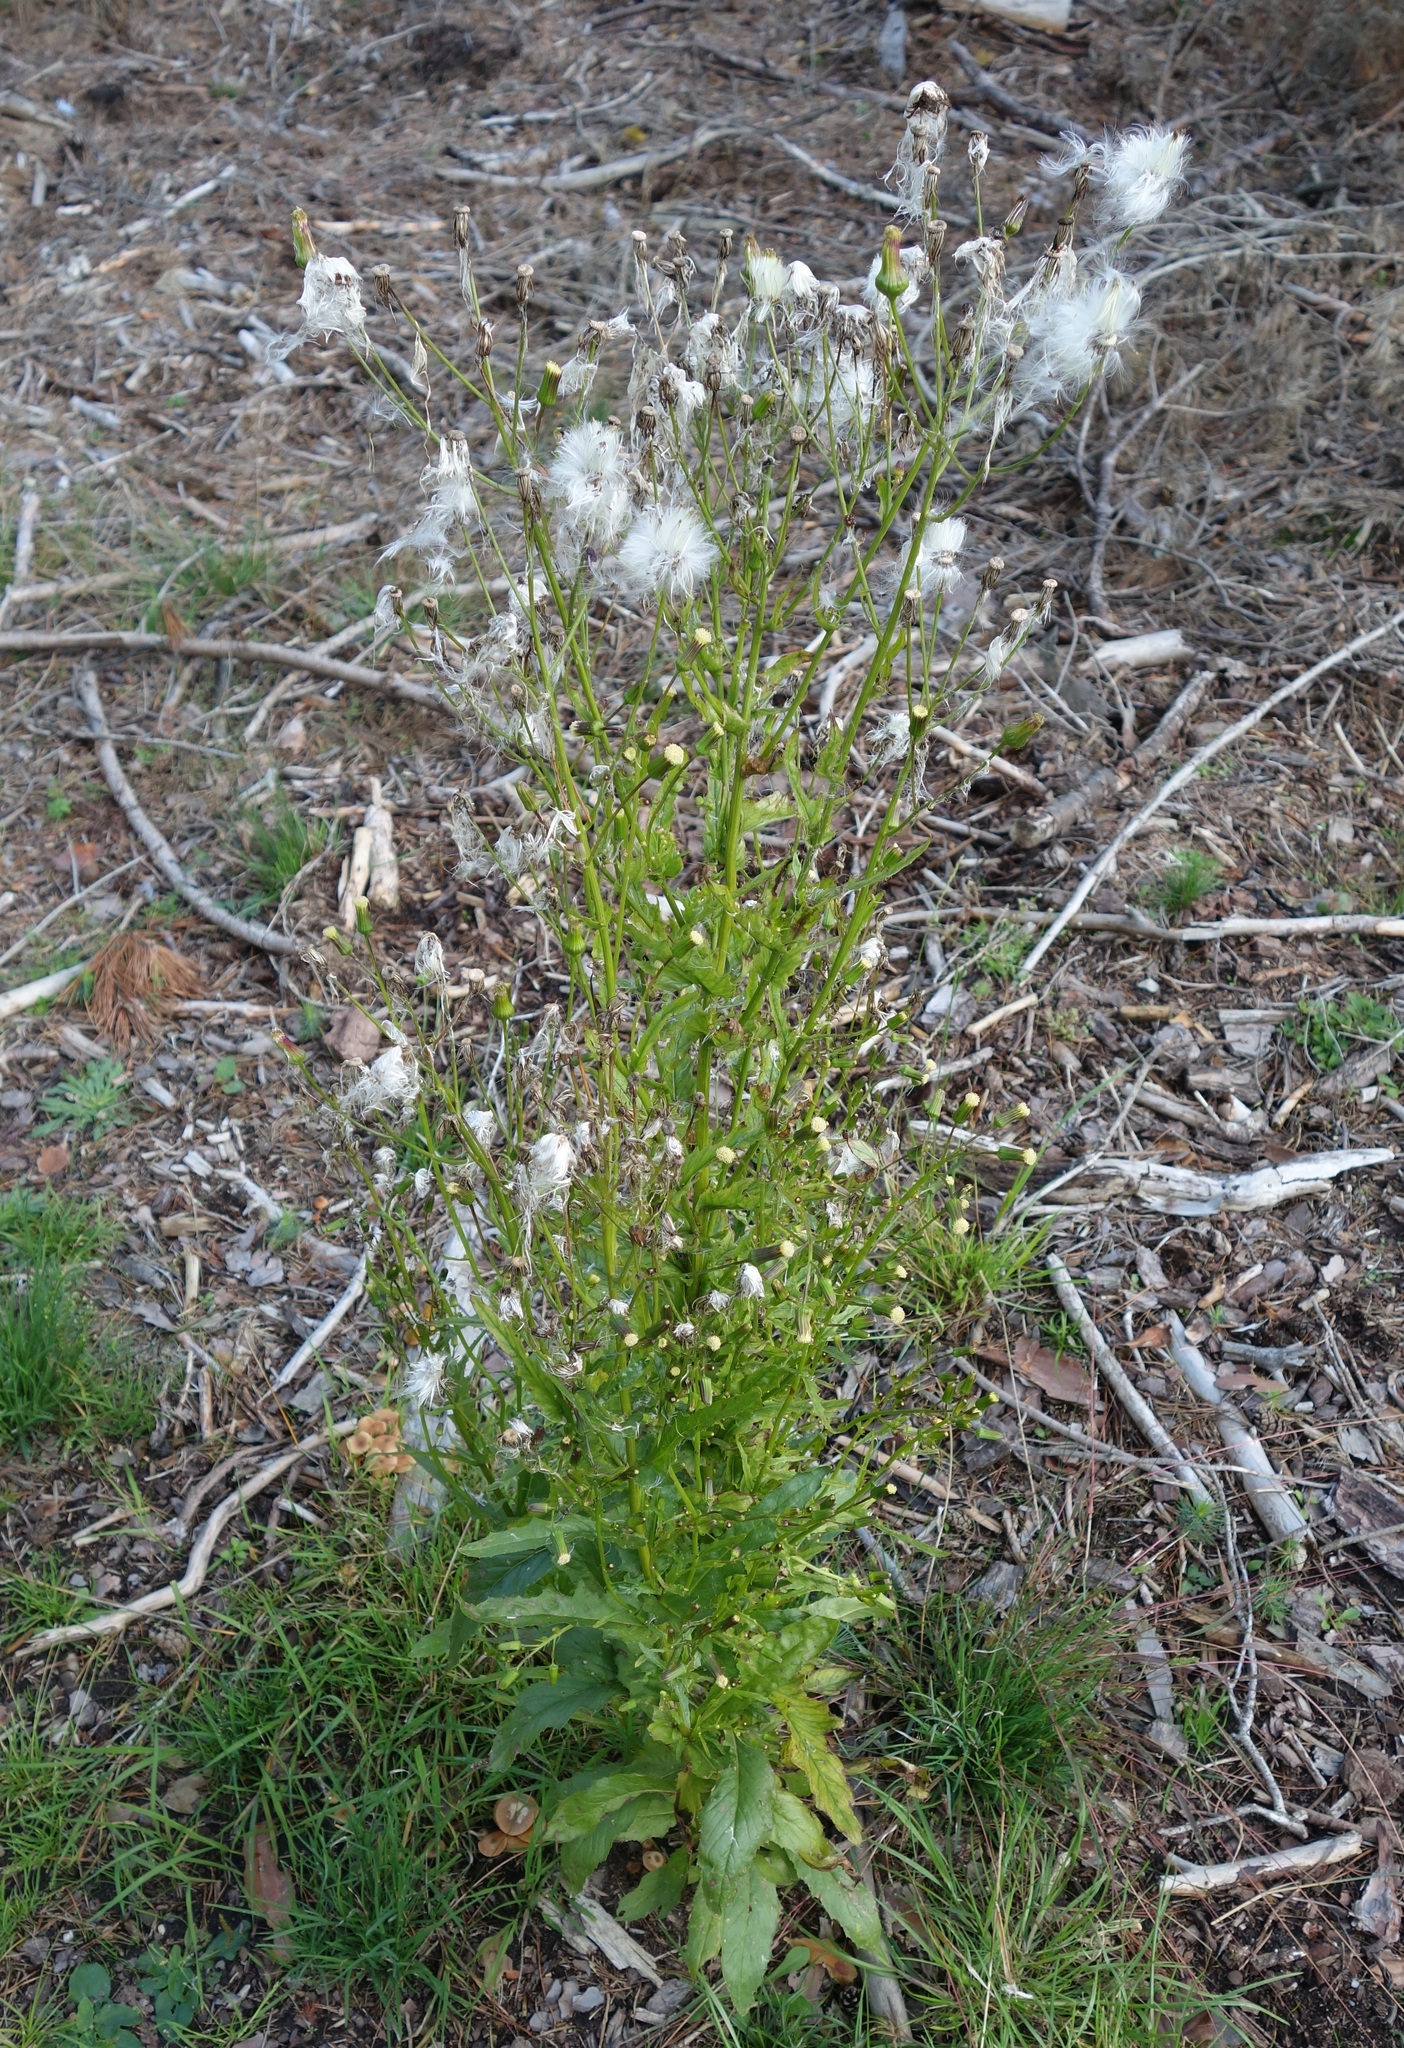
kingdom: Plantae
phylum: Tracheophyta
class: Magnoliopsida
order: Asterales
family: Asteraceae
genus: Erechtites
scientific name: Erechtites hieraciifolius
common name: American burnweed
